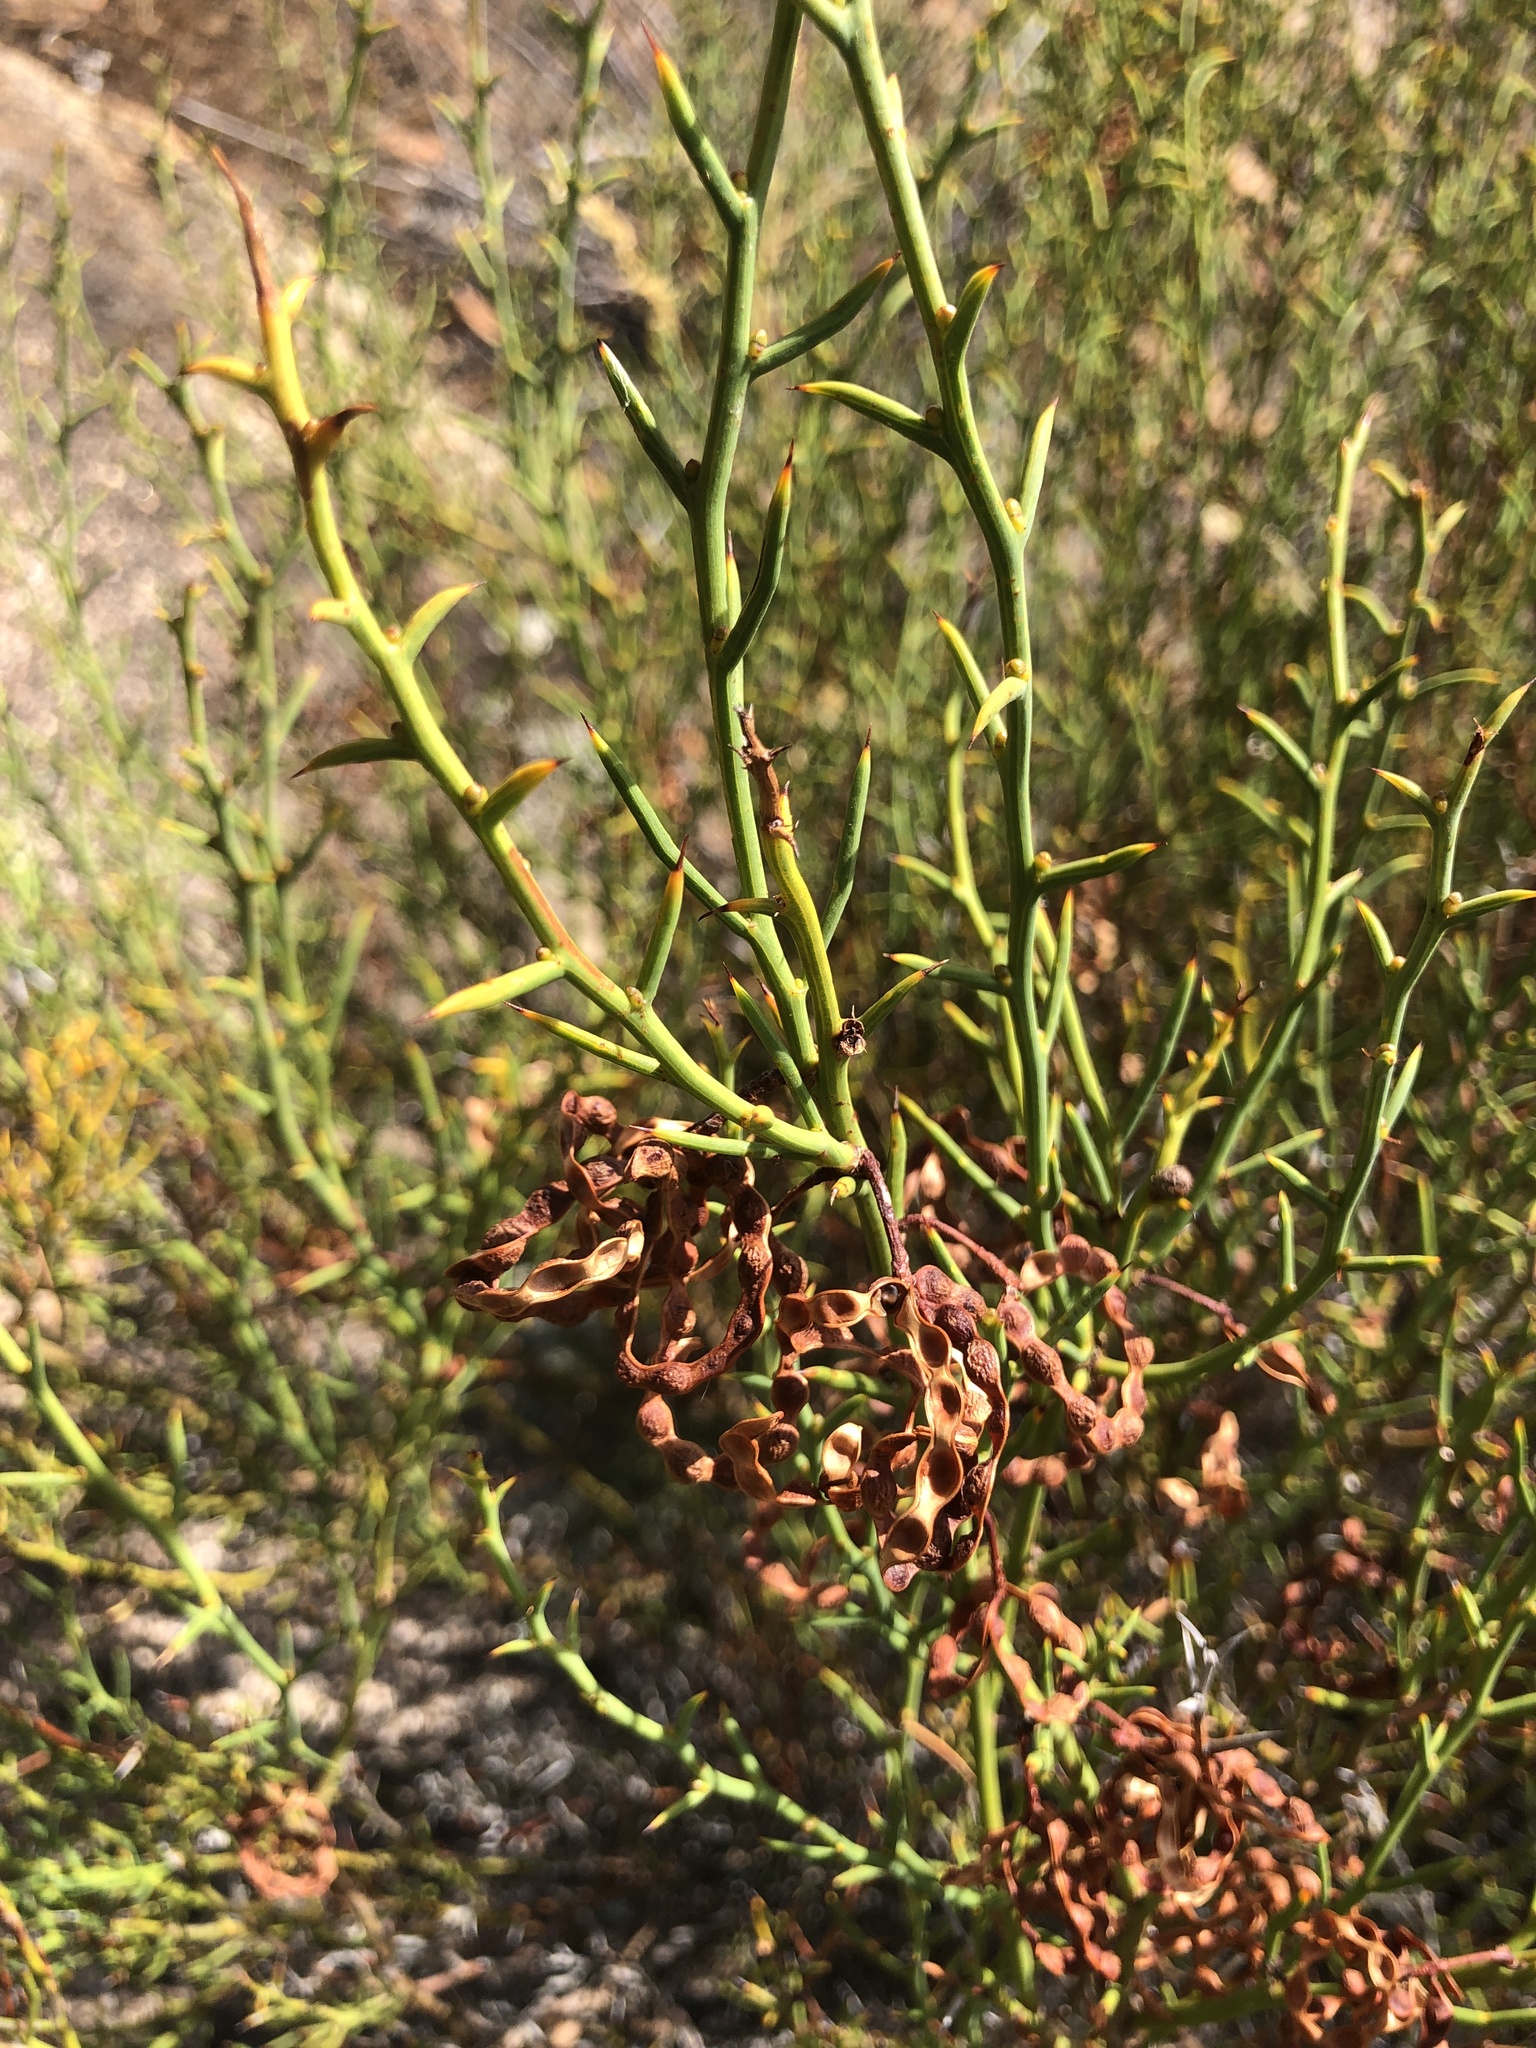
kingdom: Plantae
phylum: Tracheophyta
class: Magnoliopsida
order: Fabales
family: Fabaceae
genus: Acacia
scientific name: Acacia continua
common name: Thorn wattle
